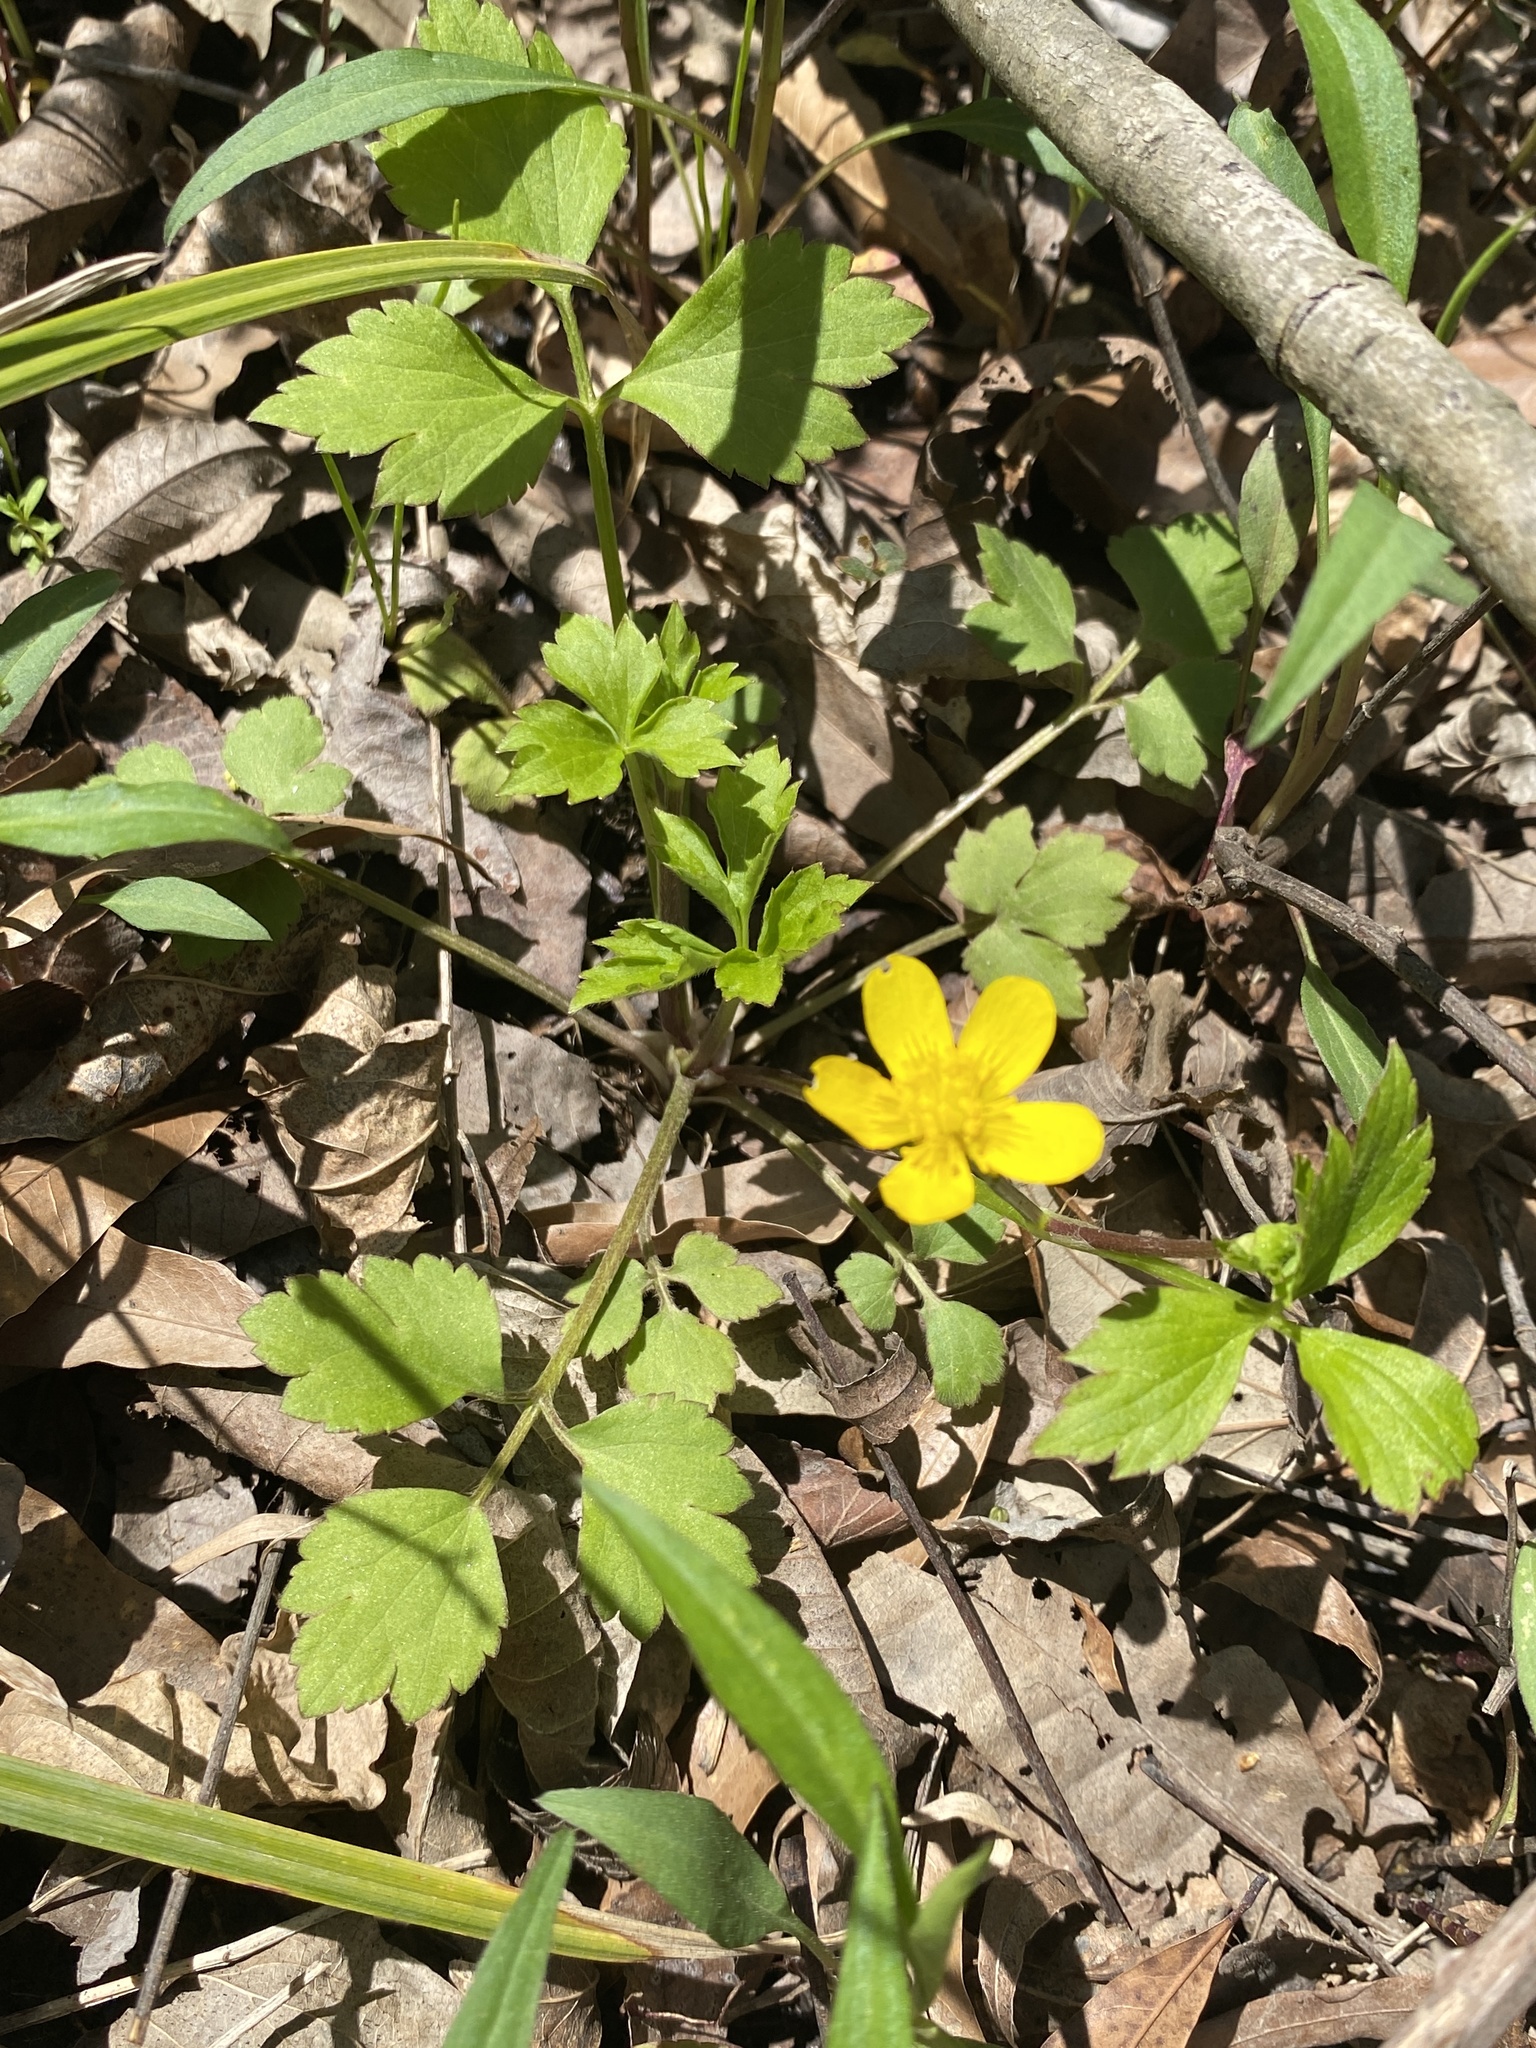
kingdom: Plantae
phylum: Tracheophyta
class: Magnoliopsida
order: Ranunculales
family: Ranunculaceae
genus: Ranunculus
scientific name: Ranunculus hispidus
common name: Bristly buttercup
